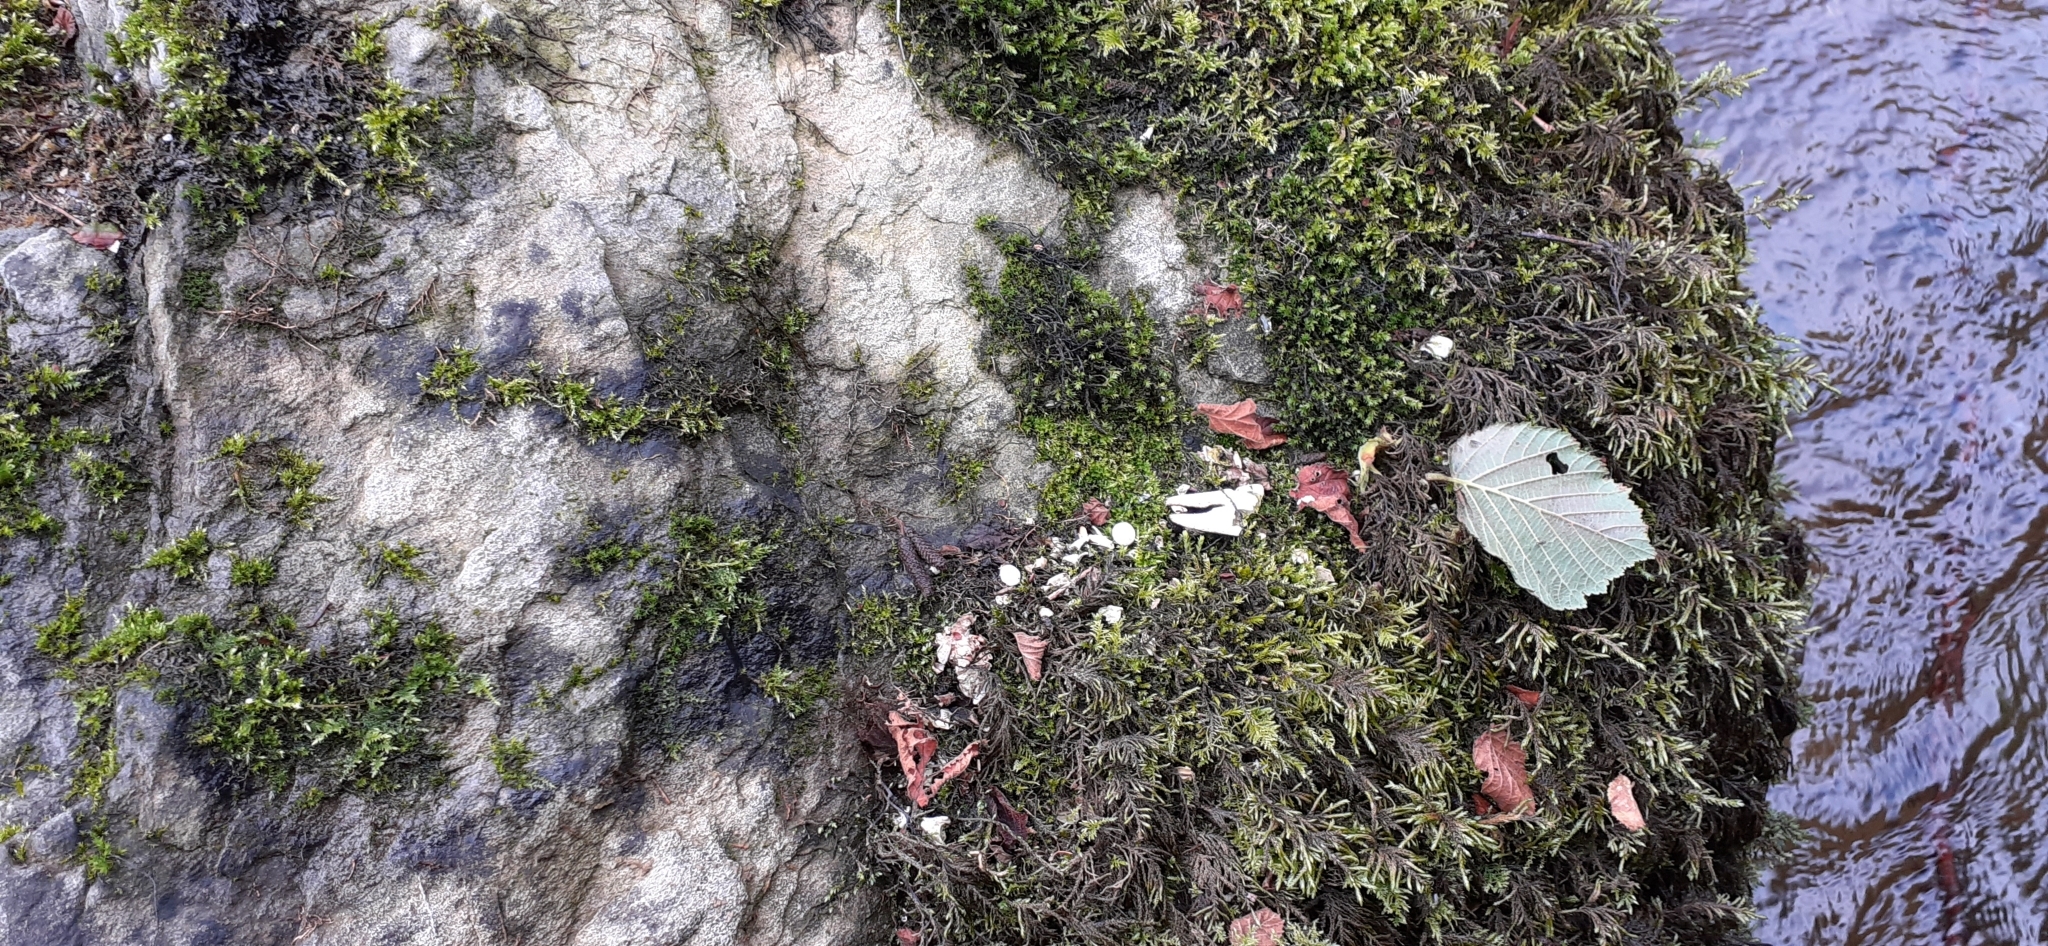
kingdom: Animalia
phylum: Arthropoda
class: Malacostraca
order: Decapoda
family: Astacidae
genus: Pacifastacus
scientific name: Pacifastacus leniusculus
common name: Signal crayfish
